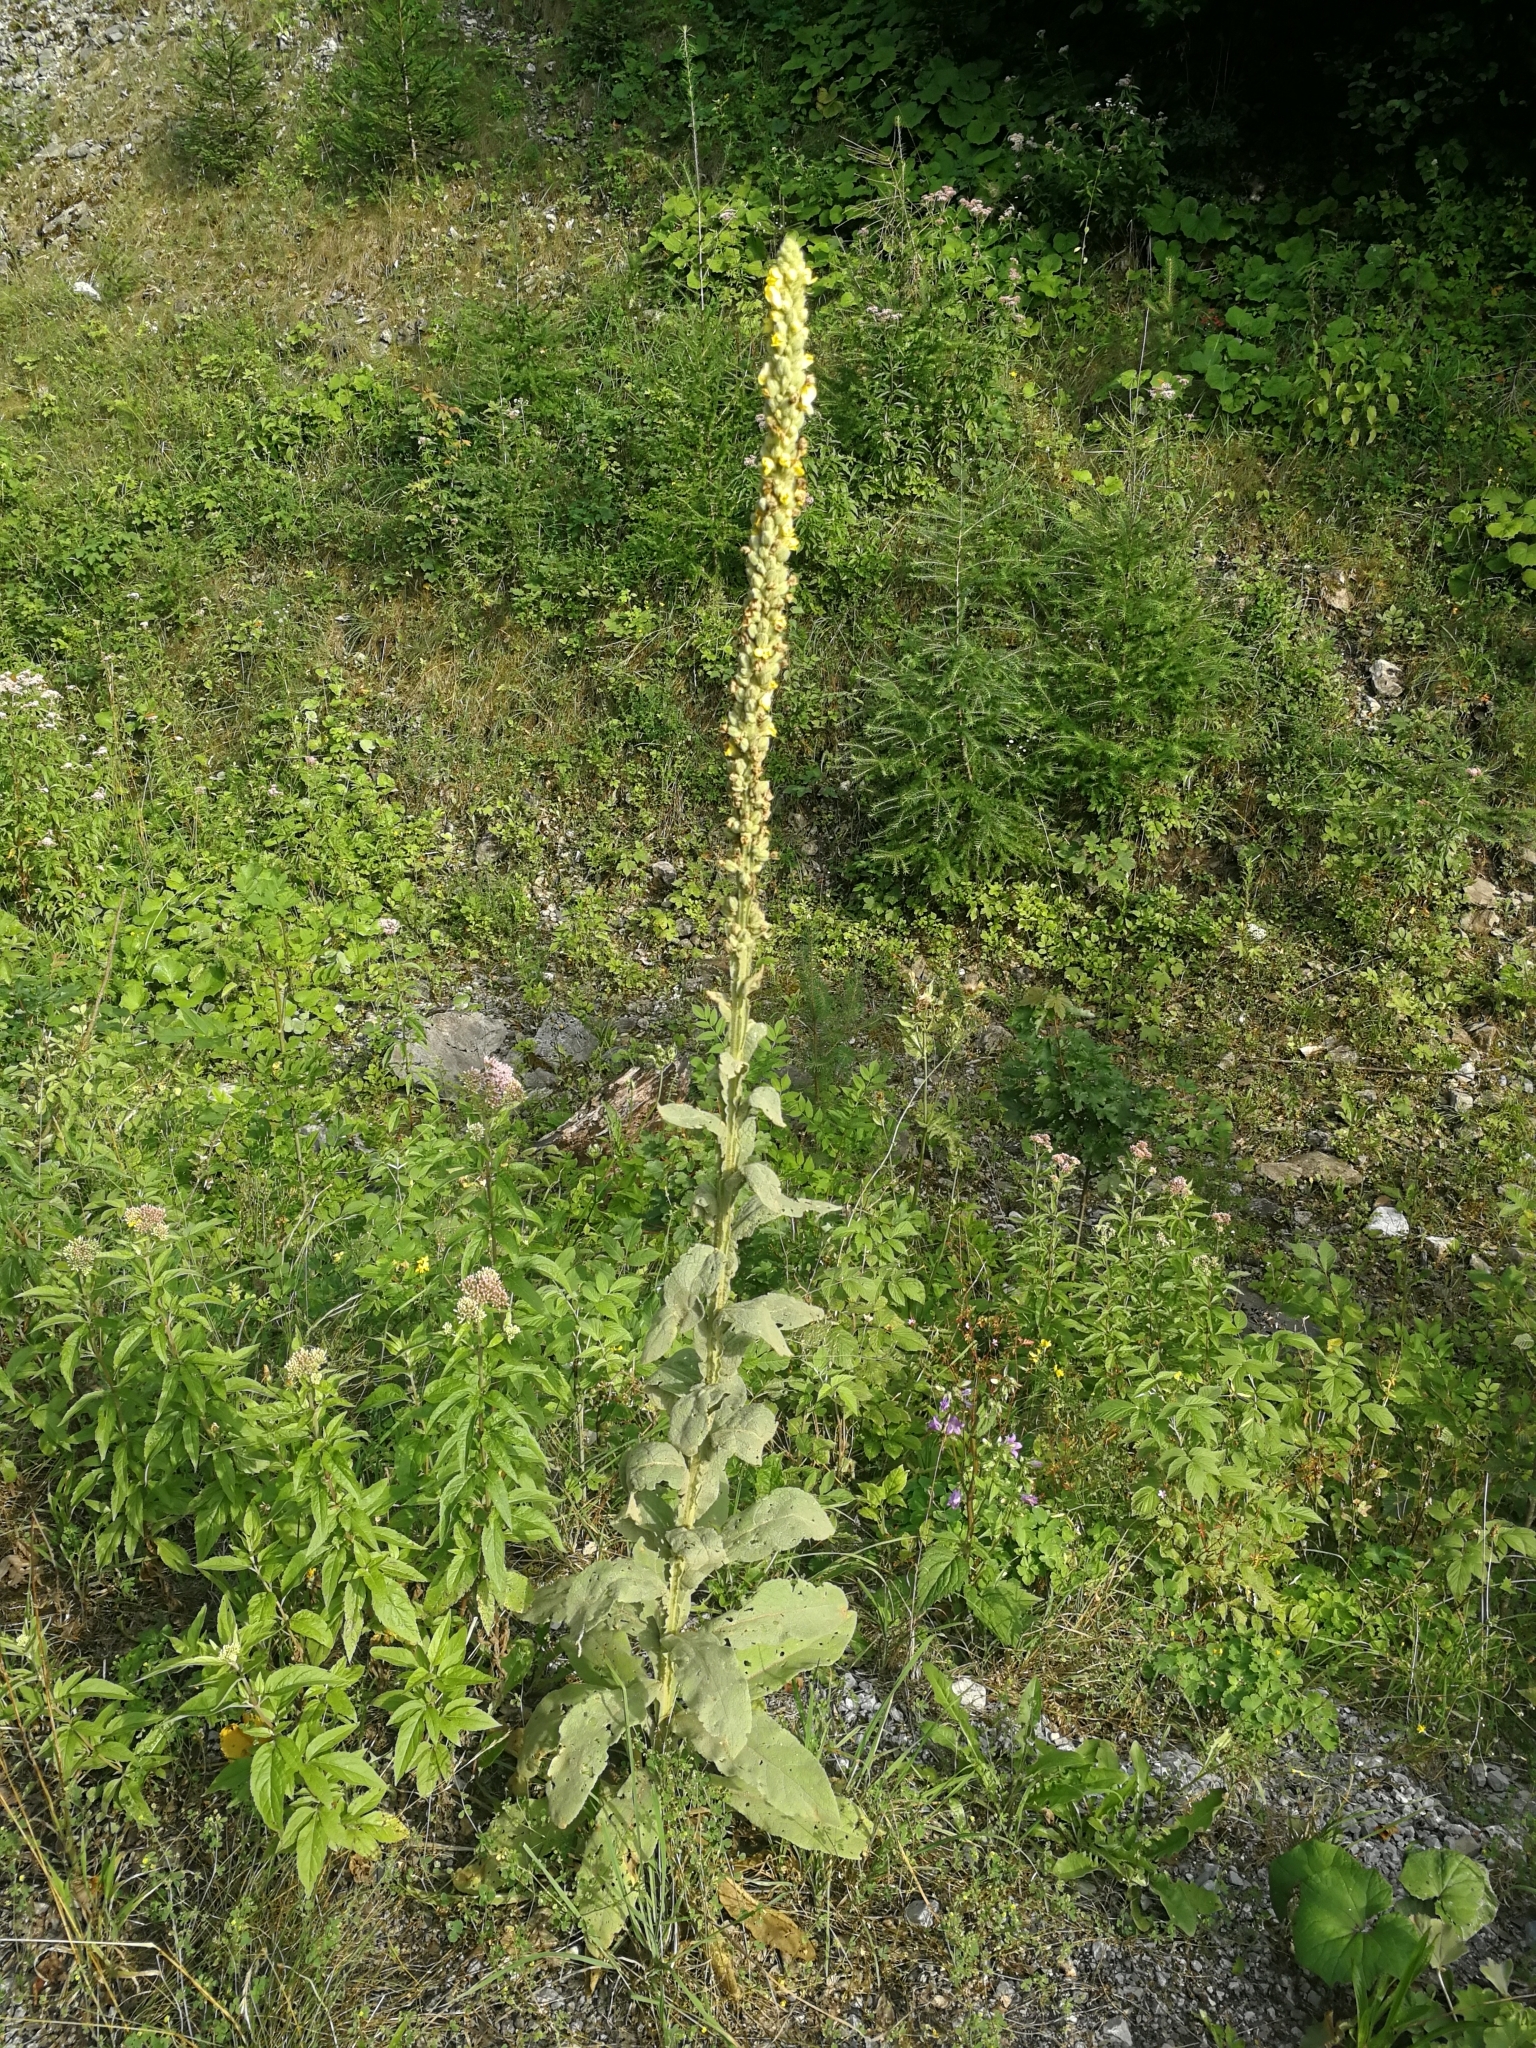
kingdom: Plantae
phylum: Tracheophyta
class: Magnoliopsida
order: Lamiales
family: Scrophulariaceae
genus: Verbascum
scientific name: Verbascum thapsus
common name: Common mullein
